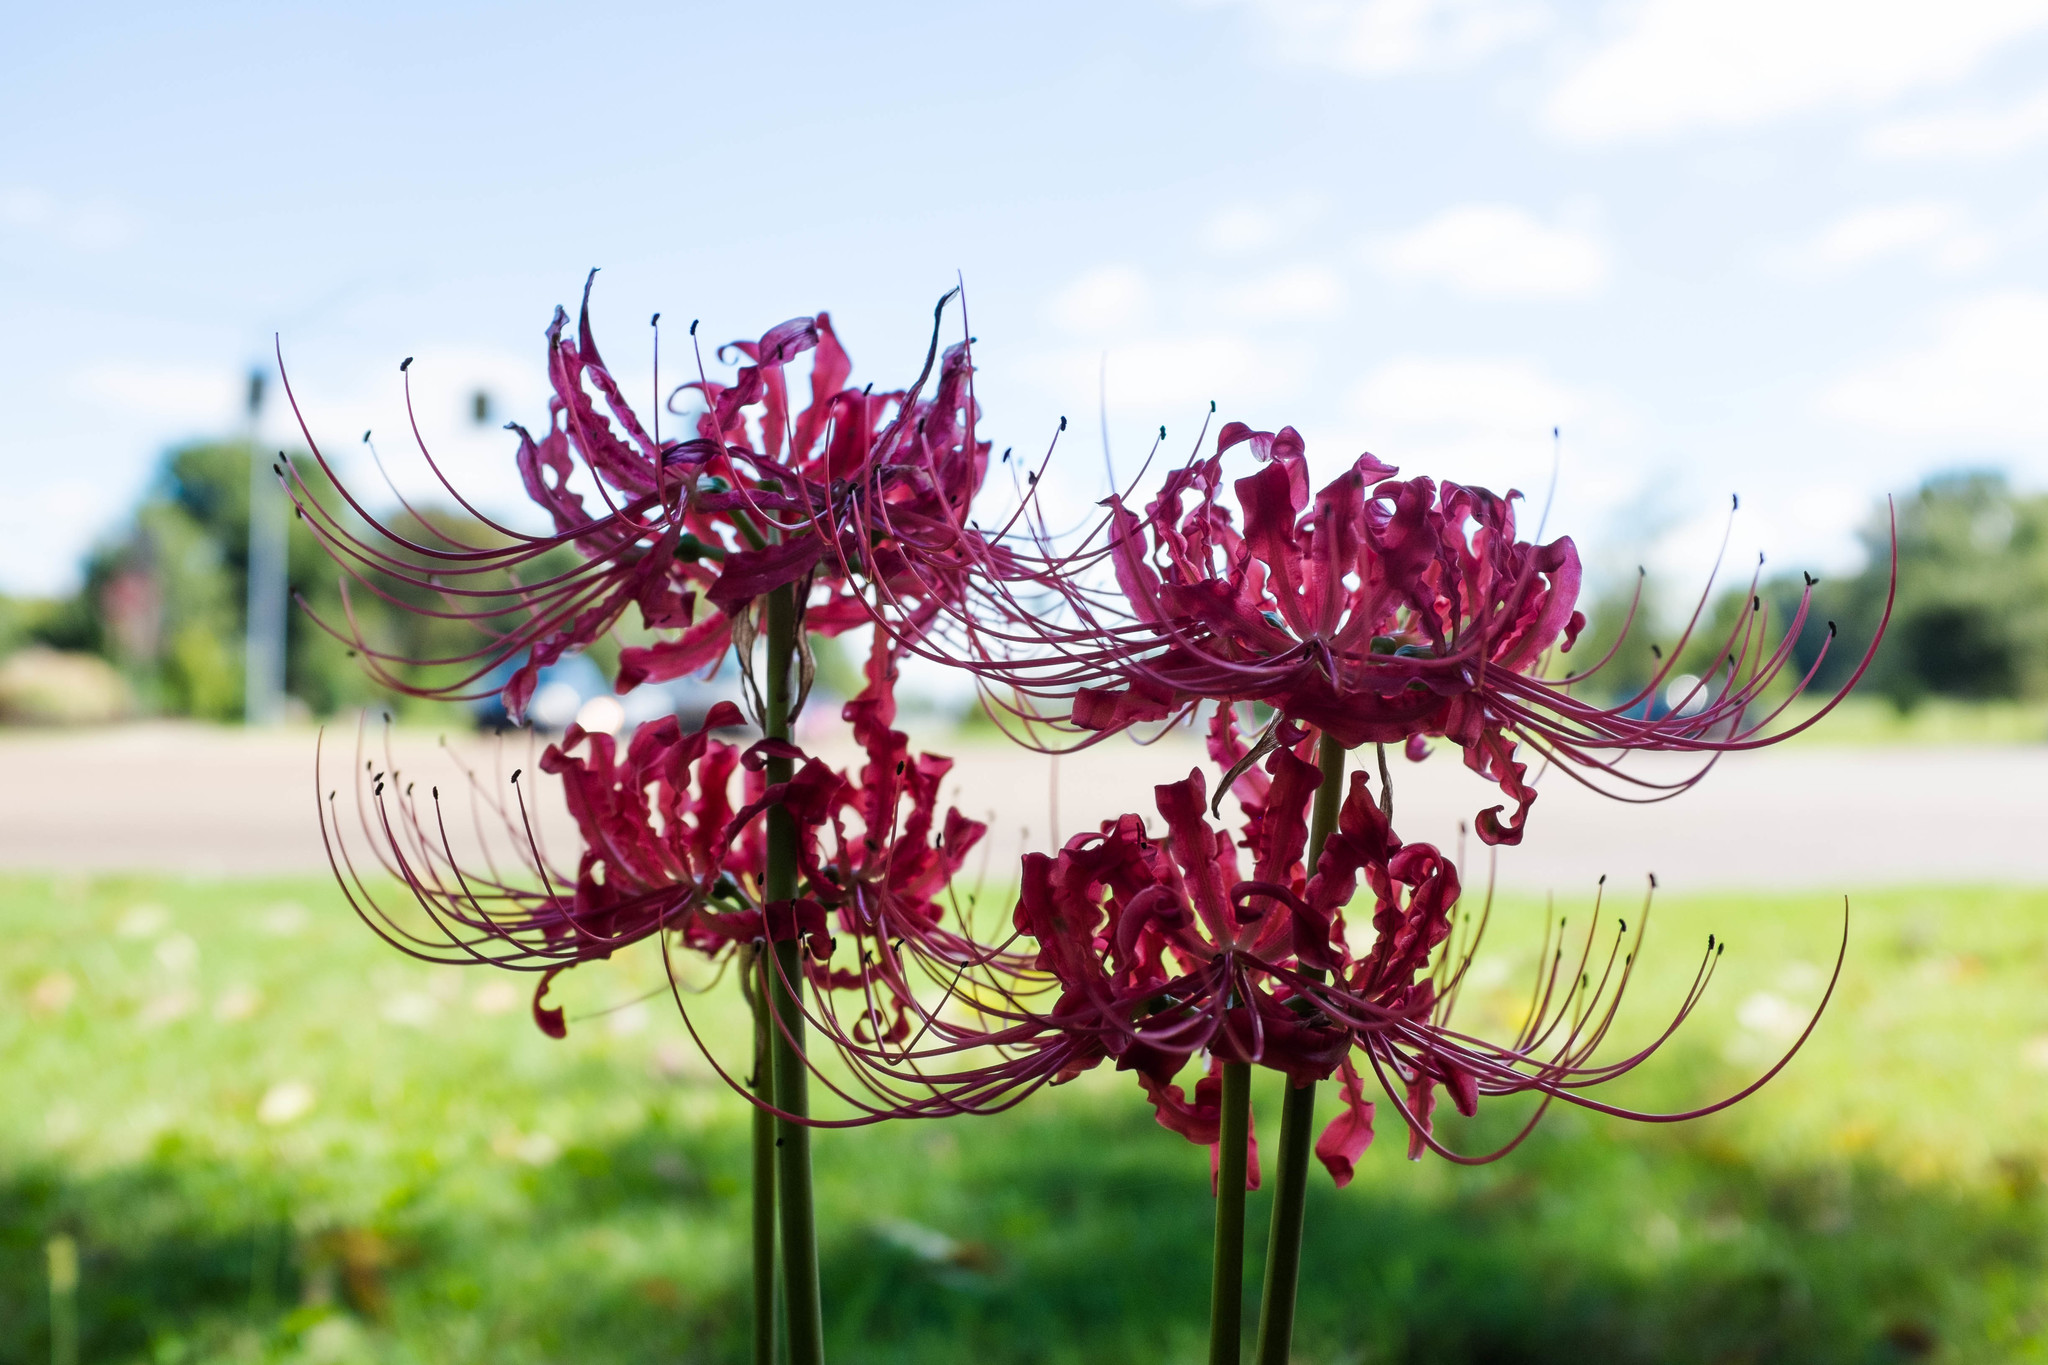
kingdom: Plantae
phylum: Tracheophyta
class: Liliopsida
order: Asparagales
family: Amaryllidaceae
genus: Lycoris
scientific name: Lycoris radiata
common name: Red spider lily
